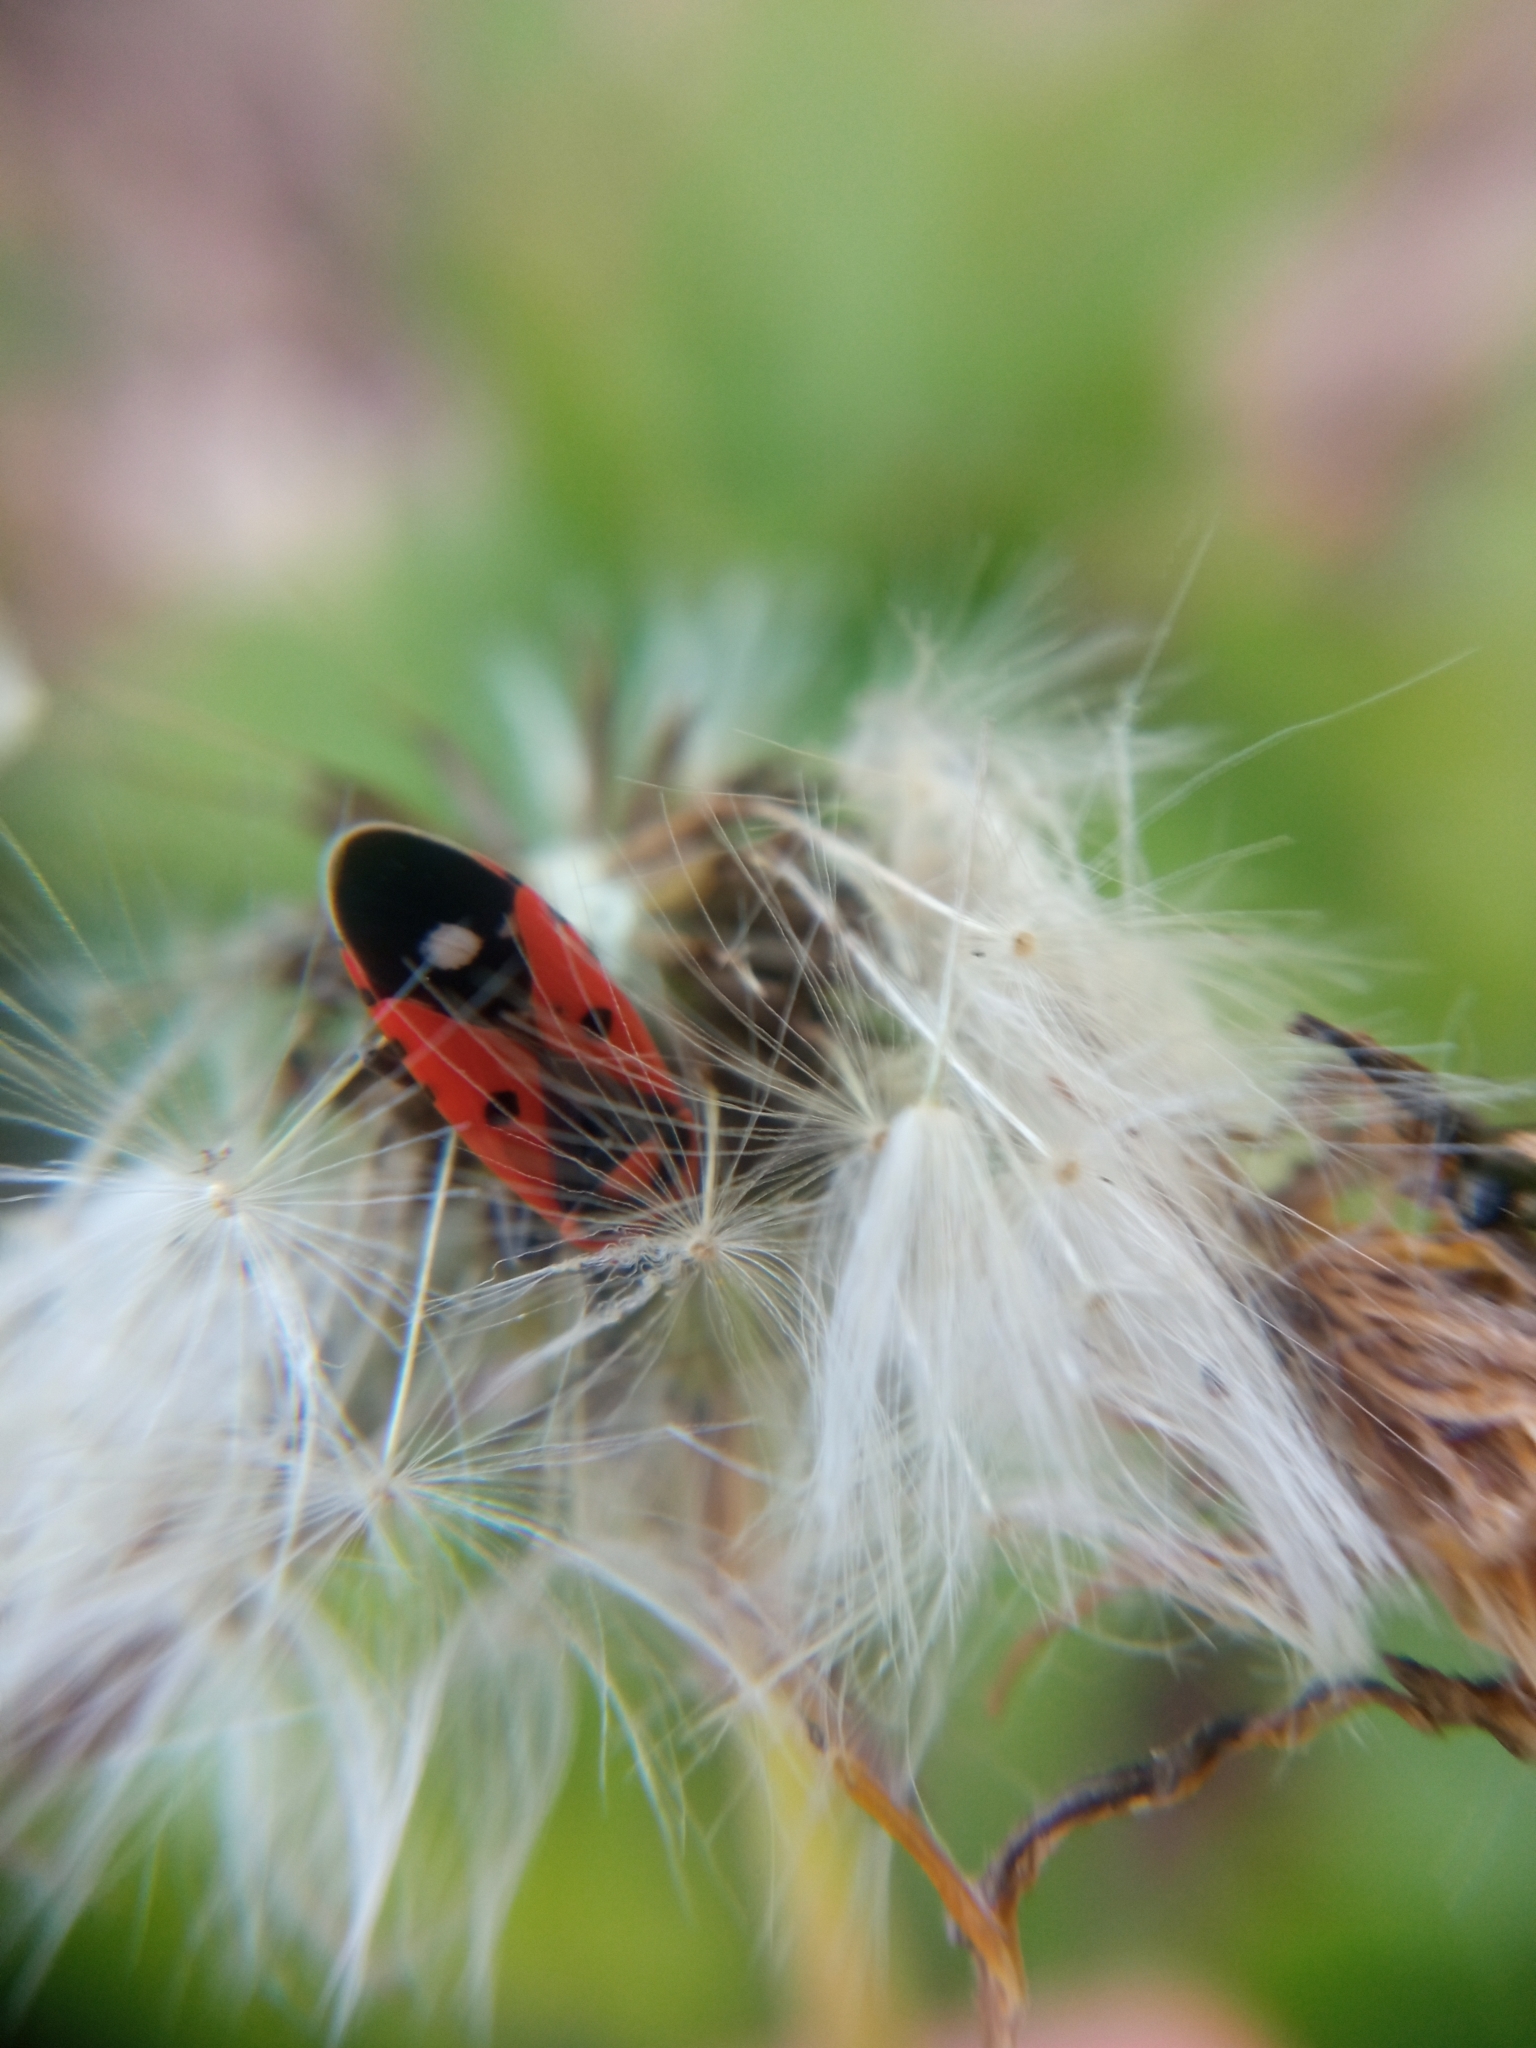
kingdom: Animalia
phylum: Arthropoda
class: Insecta
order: Hemiptera
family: Lygaeidae
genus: Melanocoryphus
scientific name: Melanocoryphus albomaculatus
